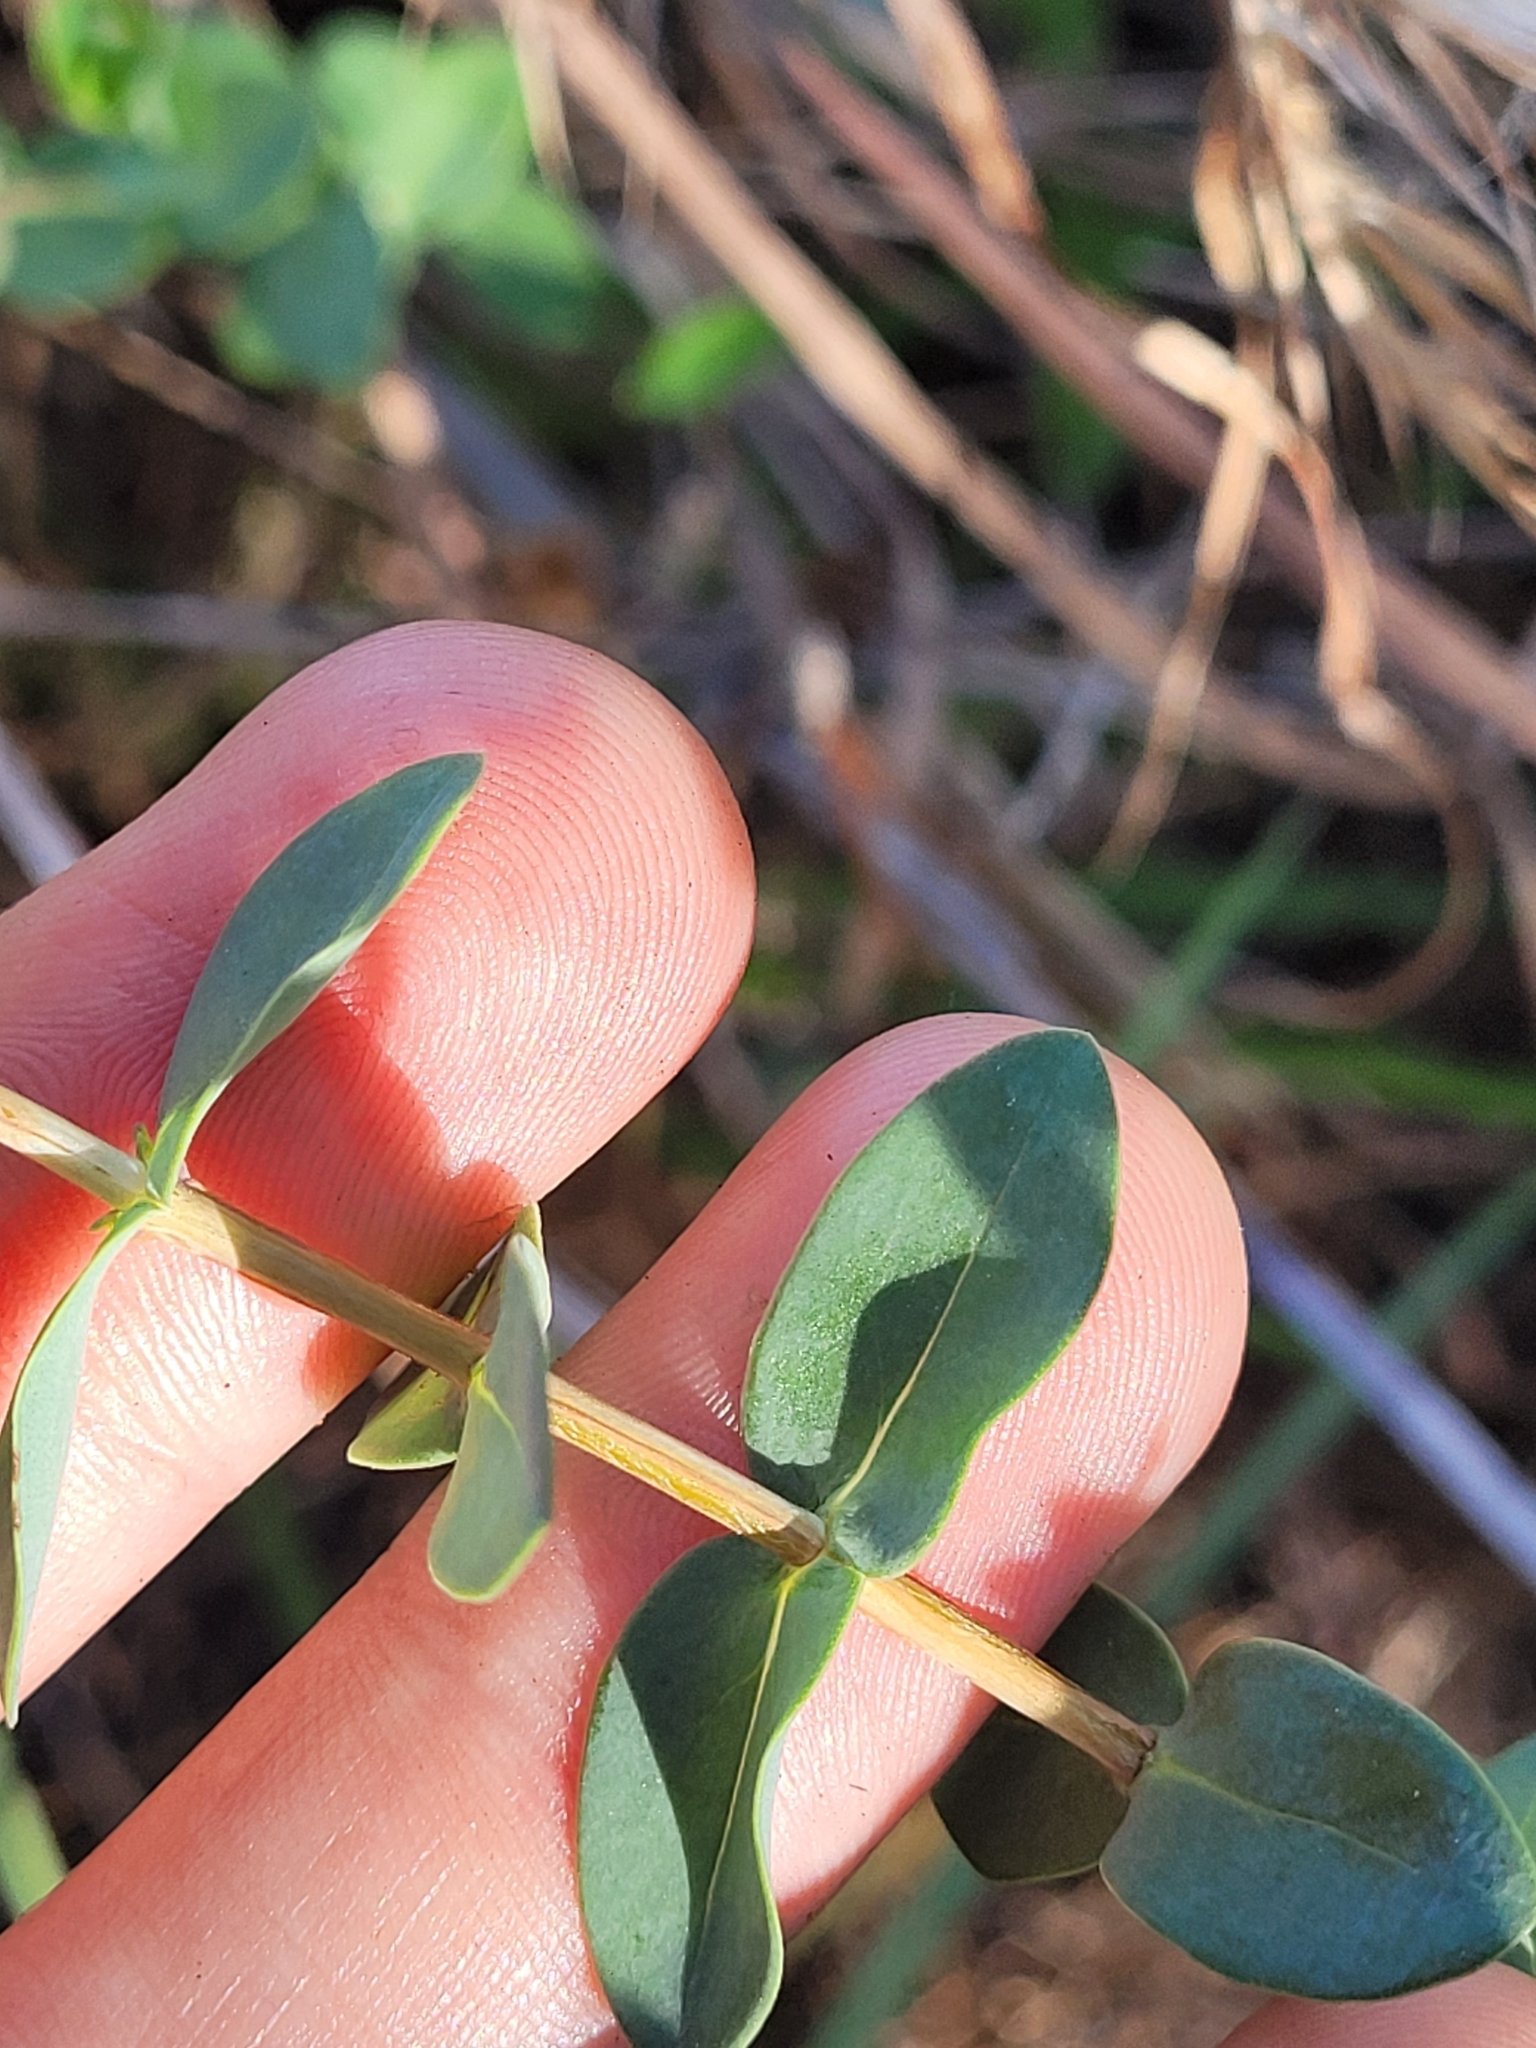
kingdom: Plantae
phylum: Tracheophyta
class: Magnoliopsida
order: Malpighiales
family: Hypericaceae
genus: Hypericum
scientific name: Hypericum tetrapetalum
